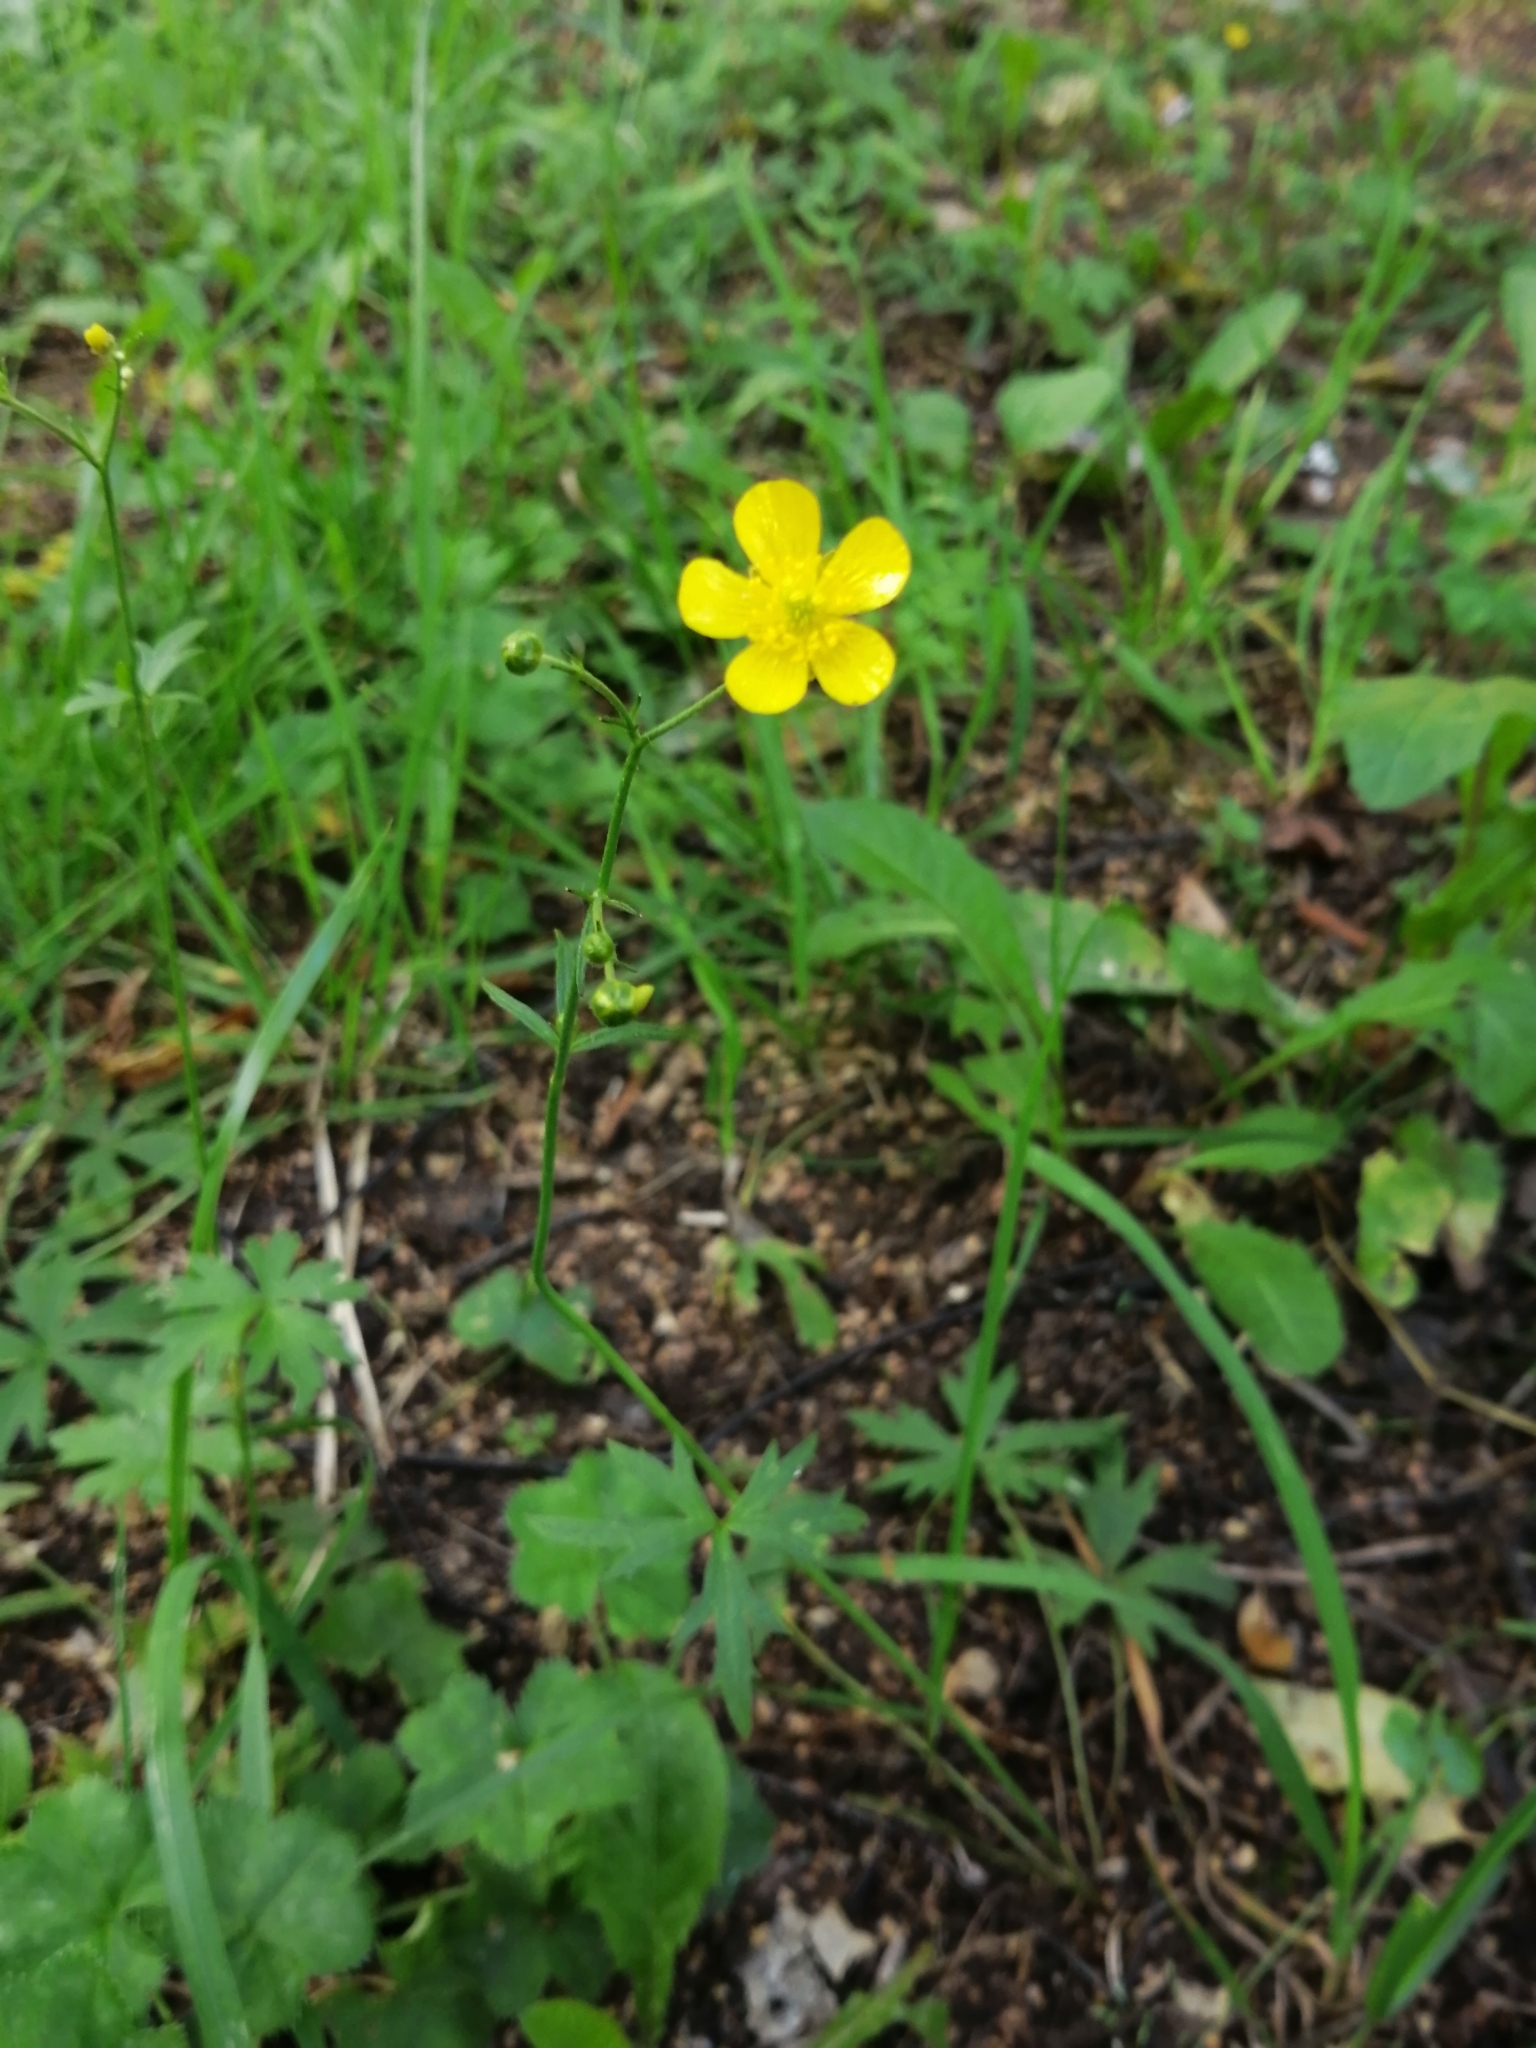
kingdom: Plantae
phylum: Tracheophyta
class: Magnoliopsida
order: Ranunculales
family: Ranunculaceae
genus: Ranunculus
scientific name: Ranunculus acris
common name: Meadow buttercup
